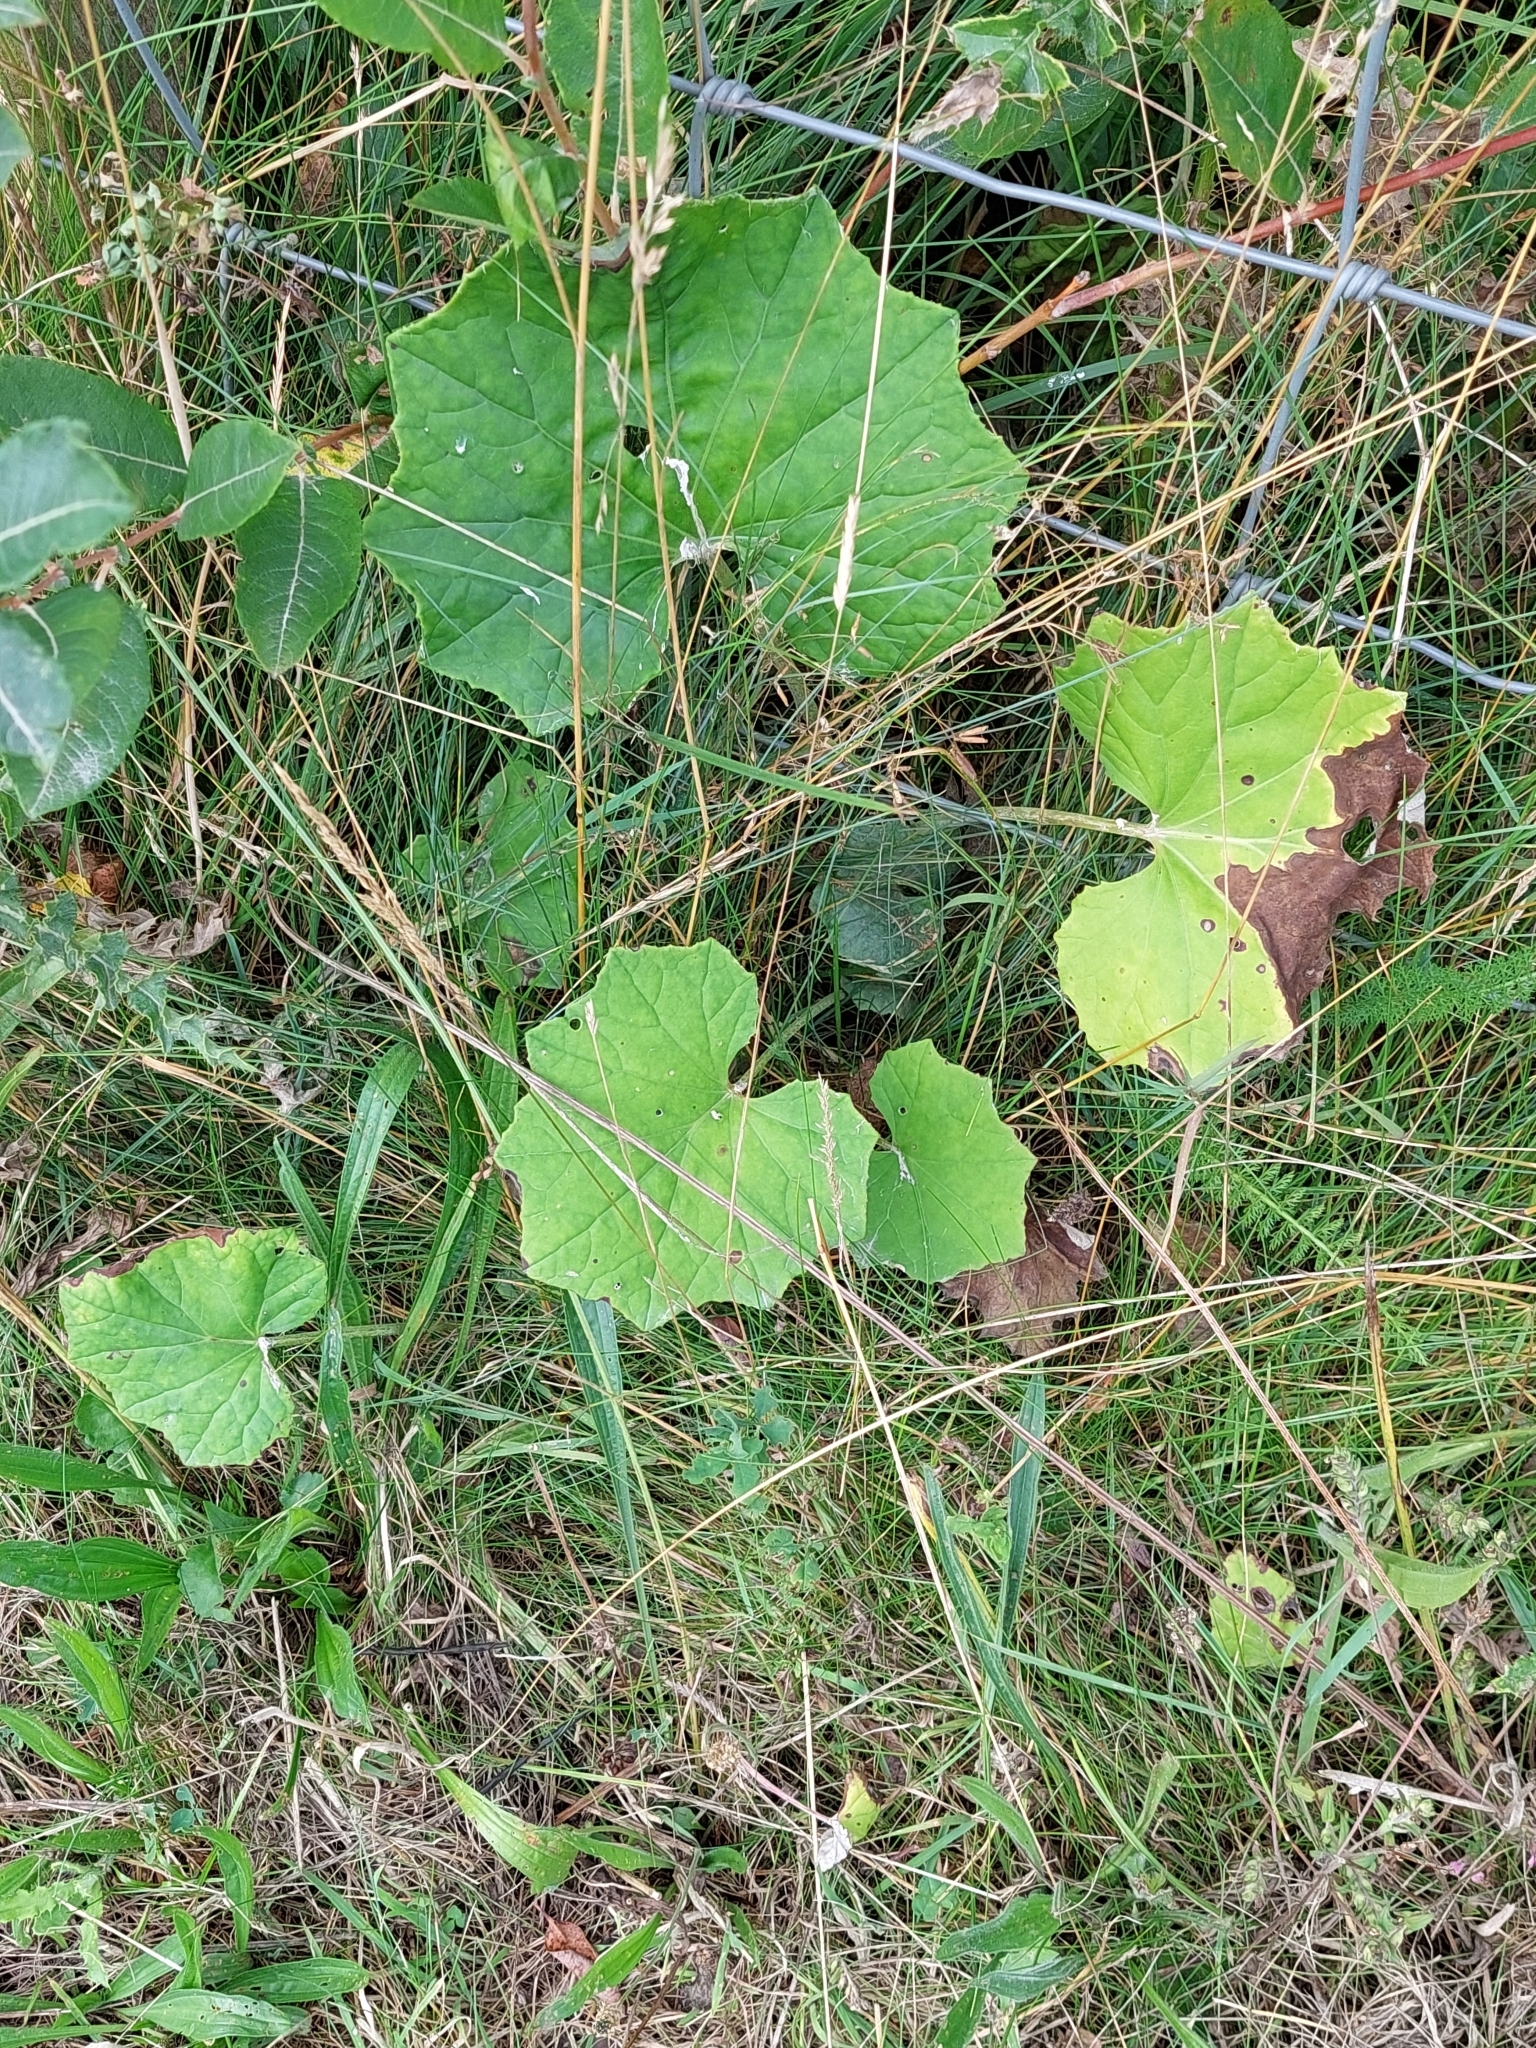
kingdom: Plantae
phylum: Tracheophyta
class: Magnoliopsida
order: Asterales
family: Asteraceae
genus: Tussilago
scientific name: Tussilago farfara
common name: Coltsfoot
